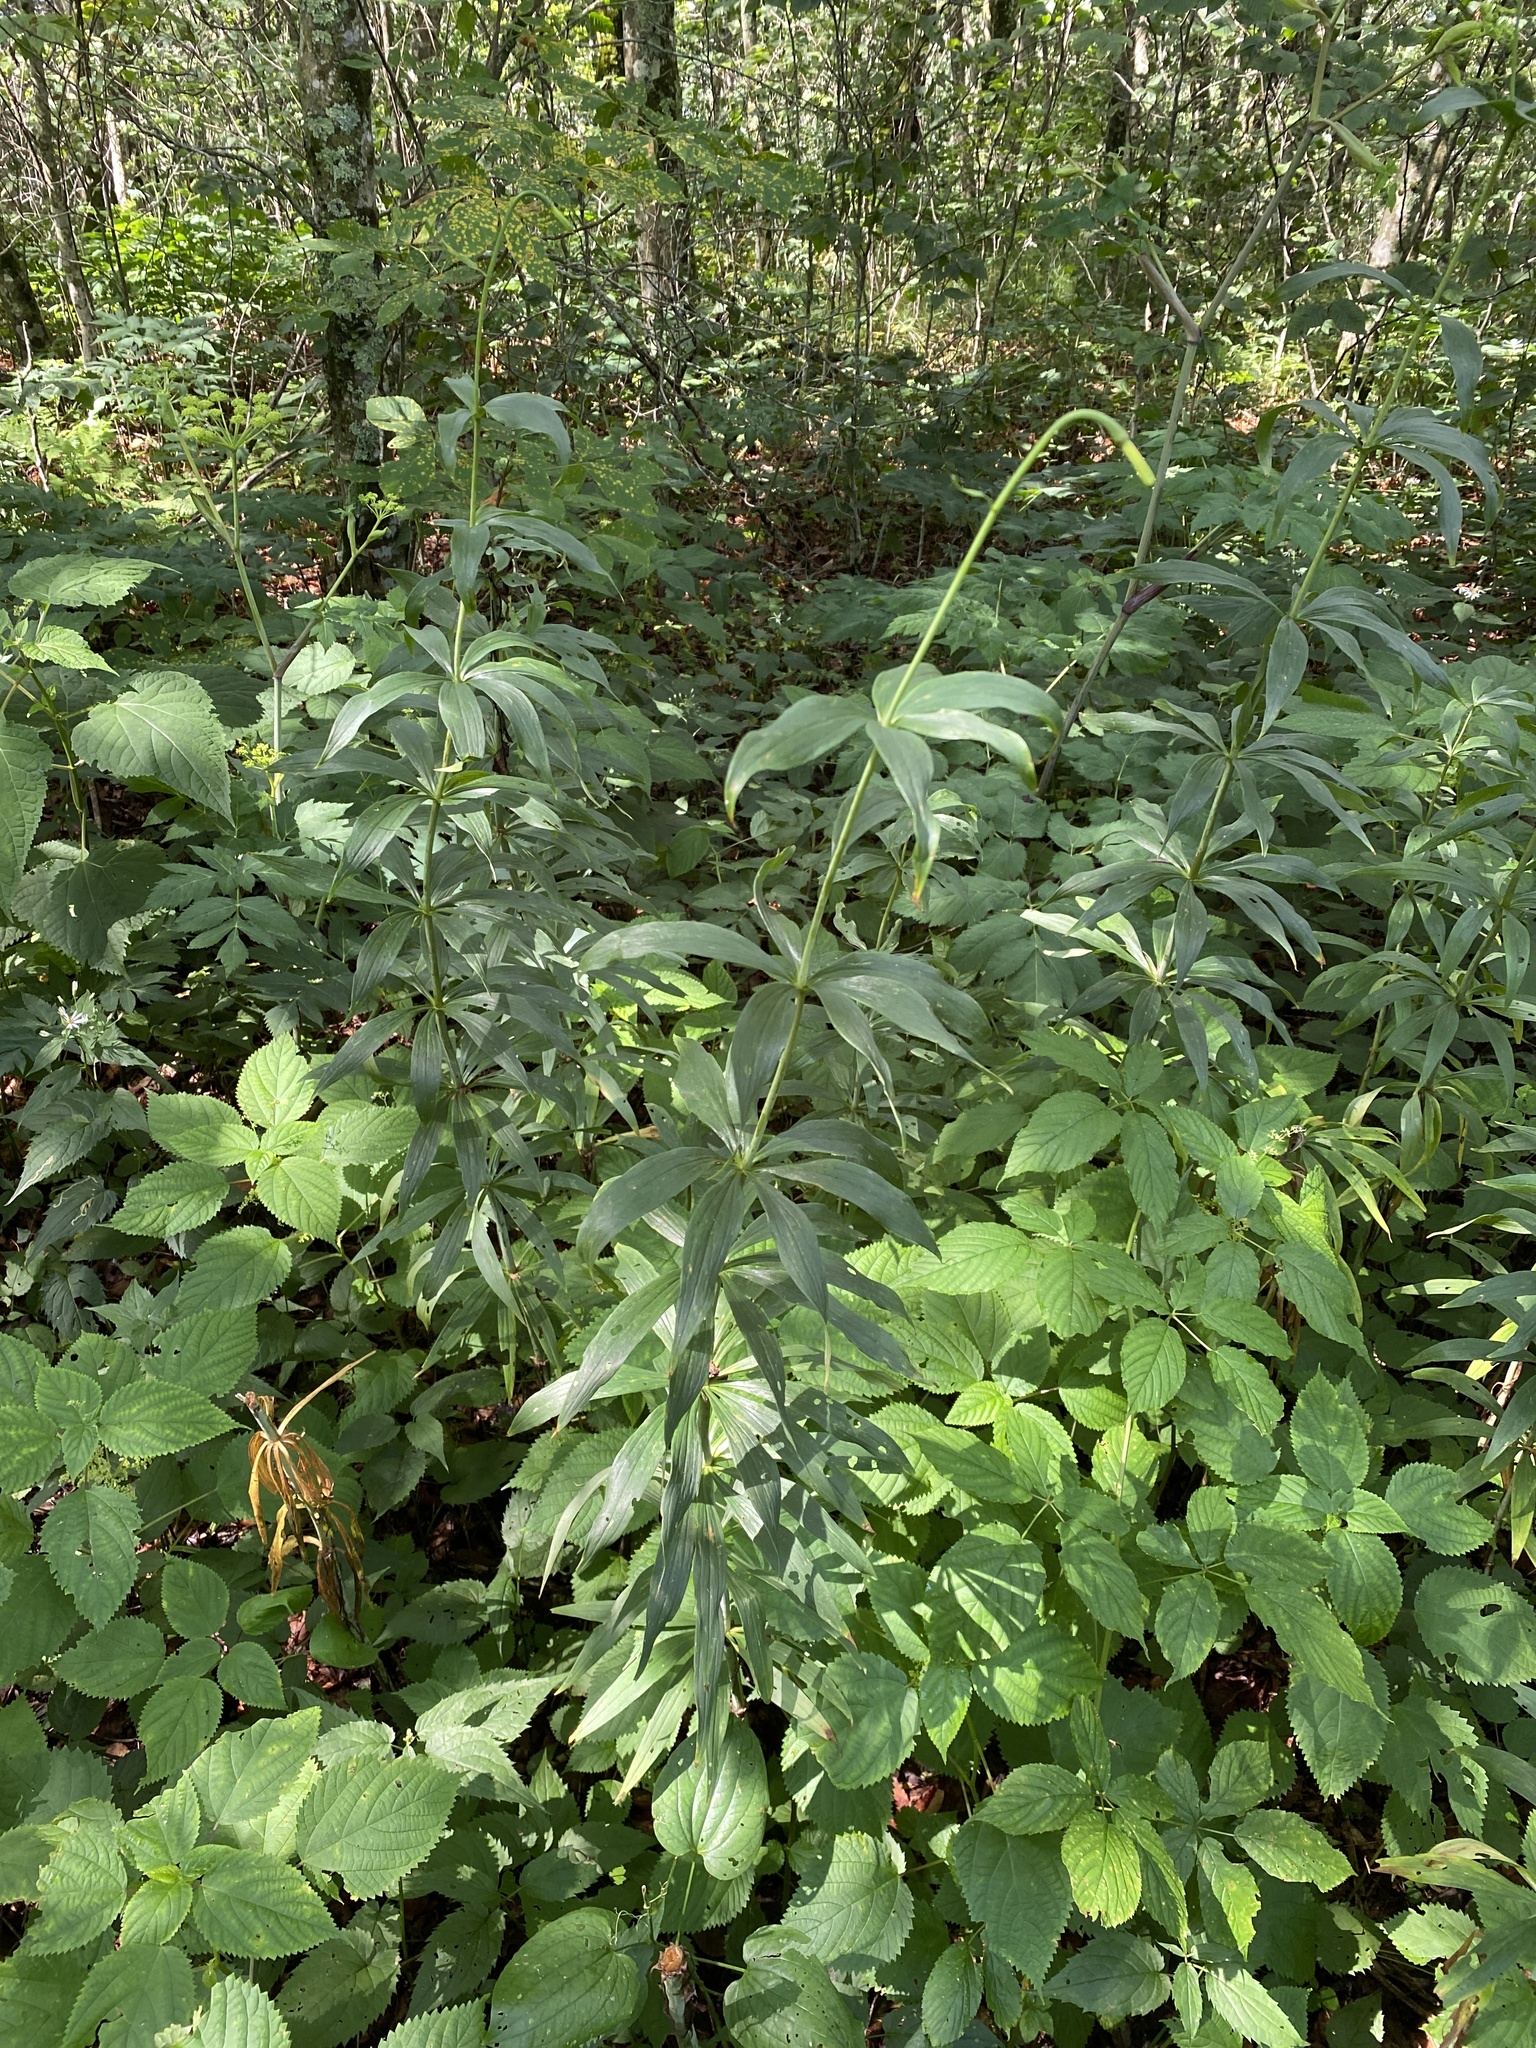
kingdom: Plantae
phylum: Tracheophyta
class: Liliopsida
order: Liliales
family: Liliaceae
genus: Lilium
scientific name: Lilium superbum
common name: American turk's-cap lily
